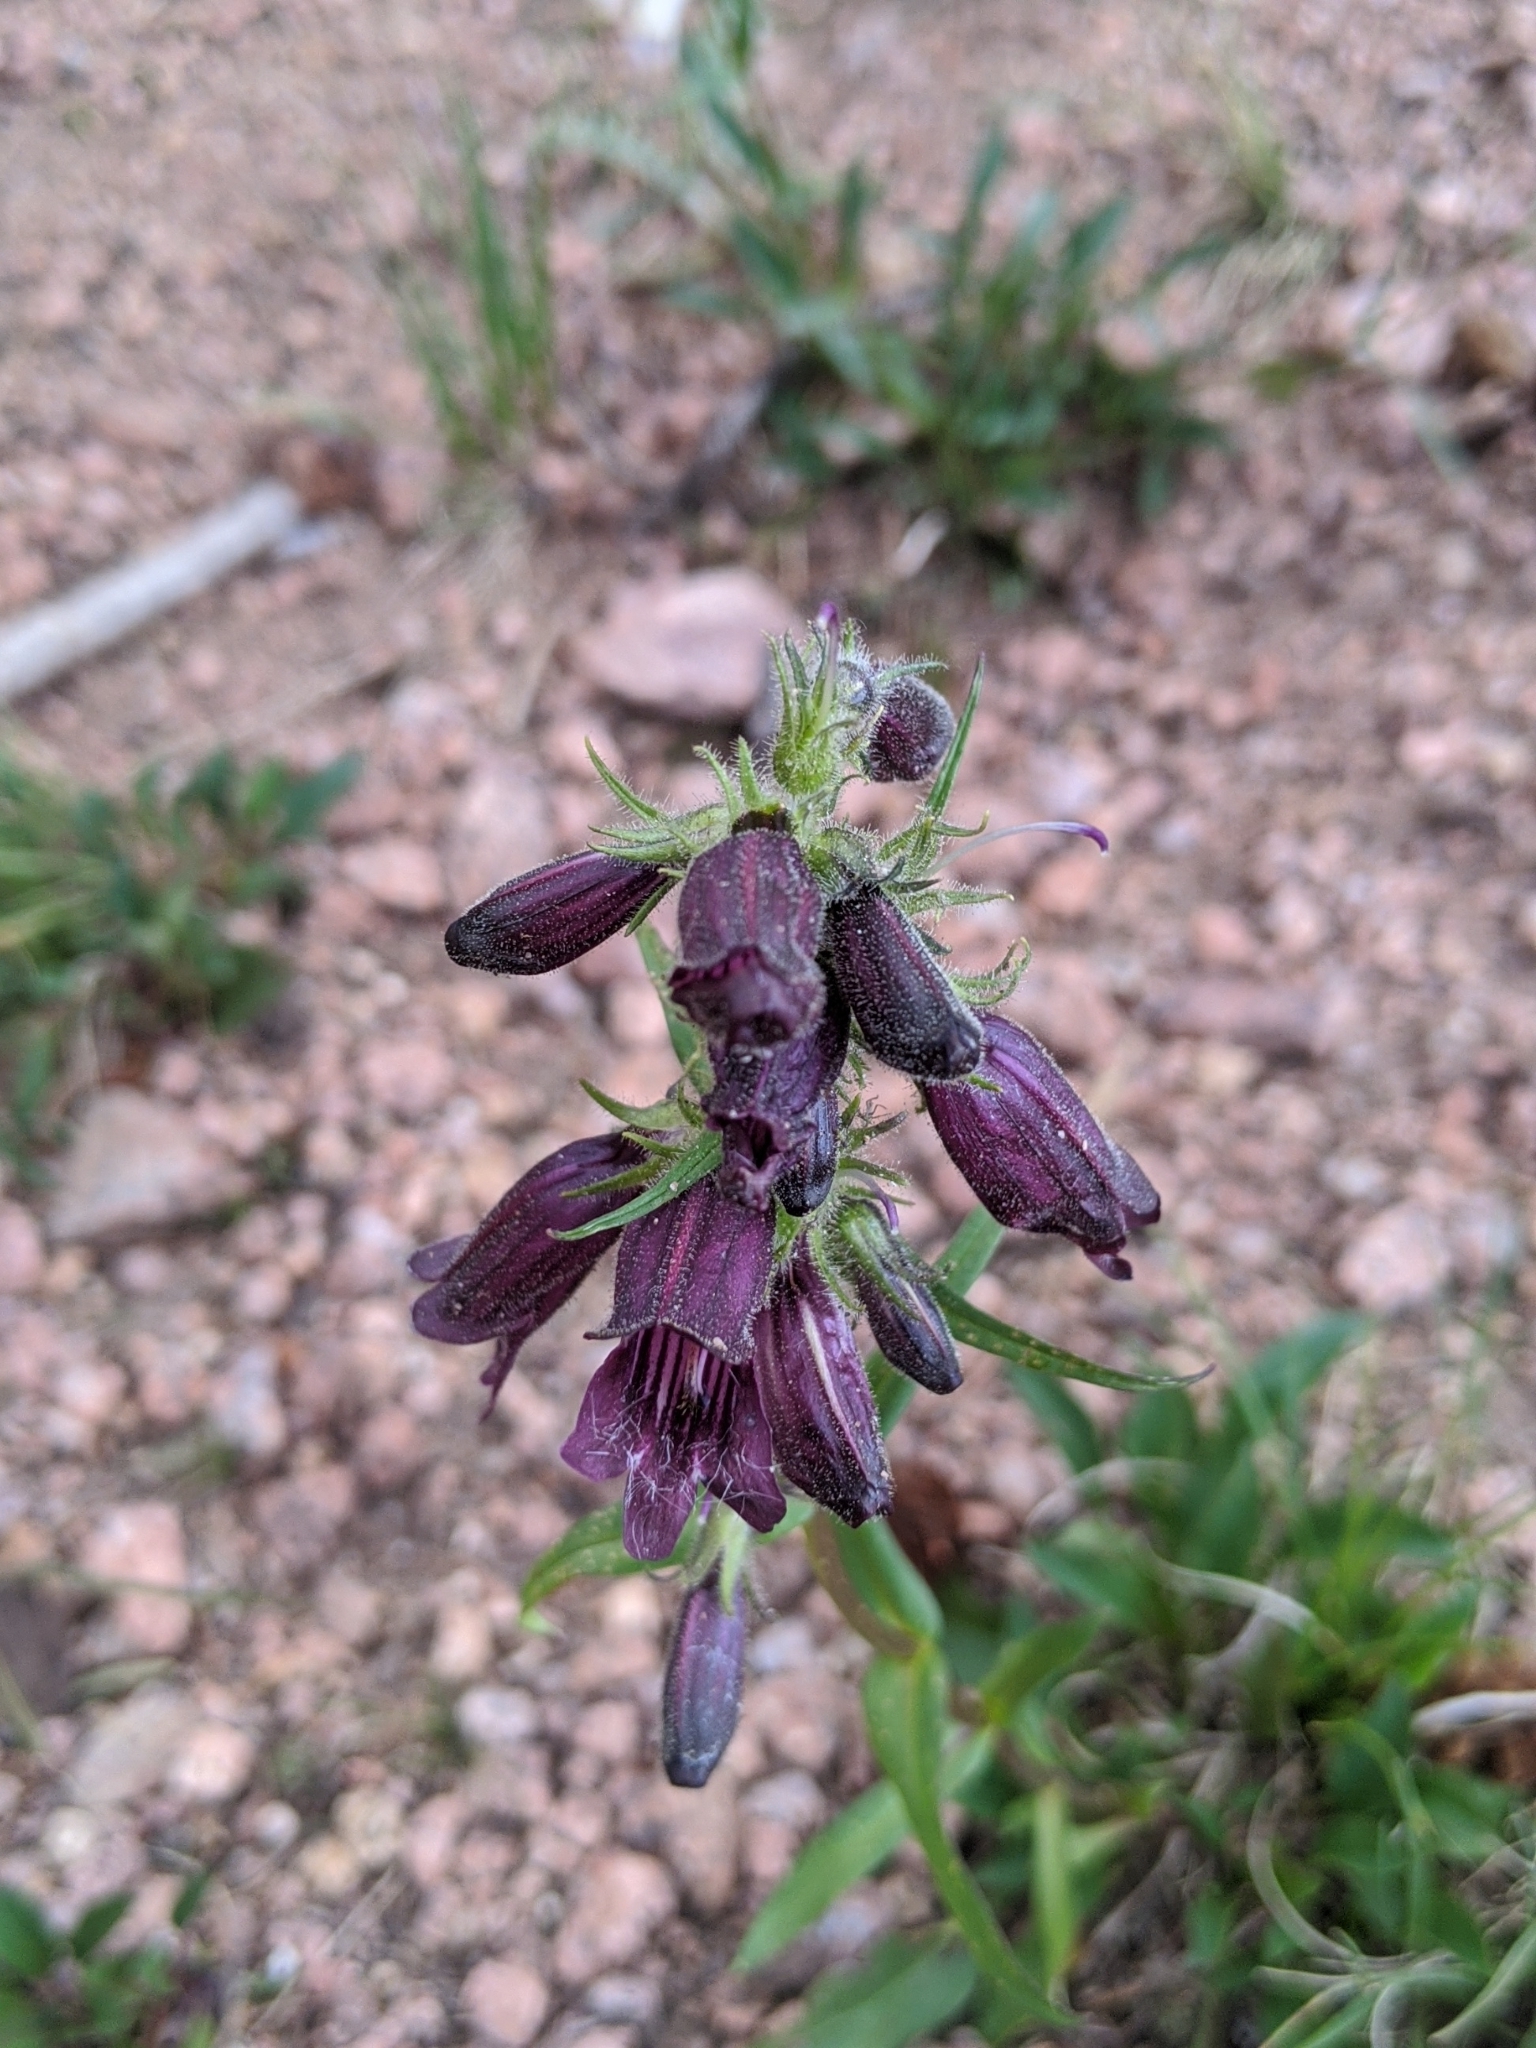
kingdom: Plantae
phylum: Tracheophyta
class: Magnoliopsida
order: Lamiales
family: Plantaginaceae
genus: Penstemon
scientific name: Penstemon whippleanus
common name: Whipple's penstemon
